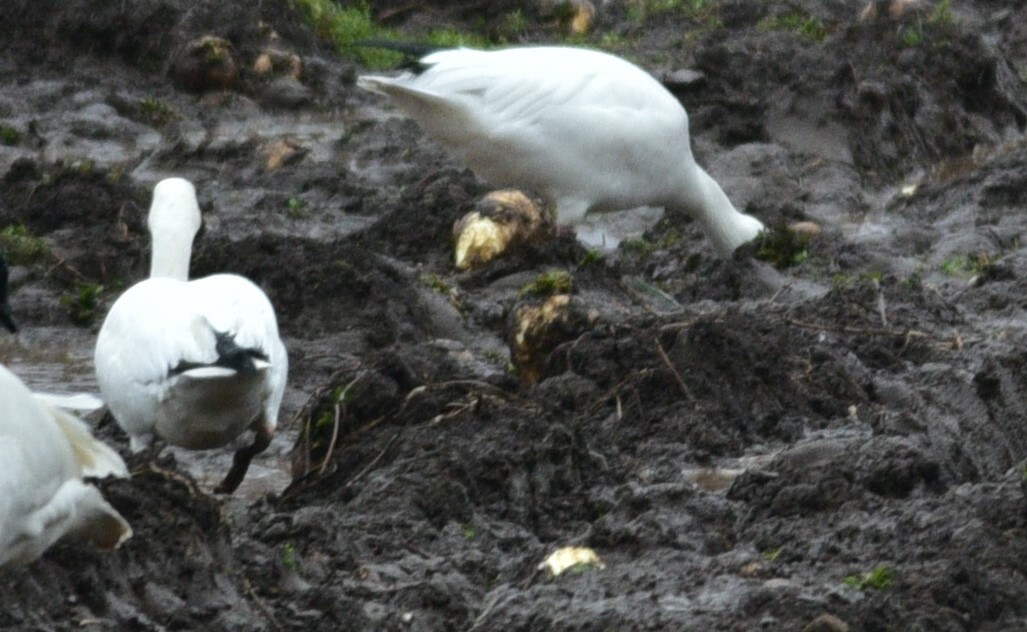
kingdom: Animalia
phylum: Chordata
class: Aves
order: Anseriformes
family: Anatidae
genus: Anser
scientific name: Anser caerulescens
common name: Snow goose
